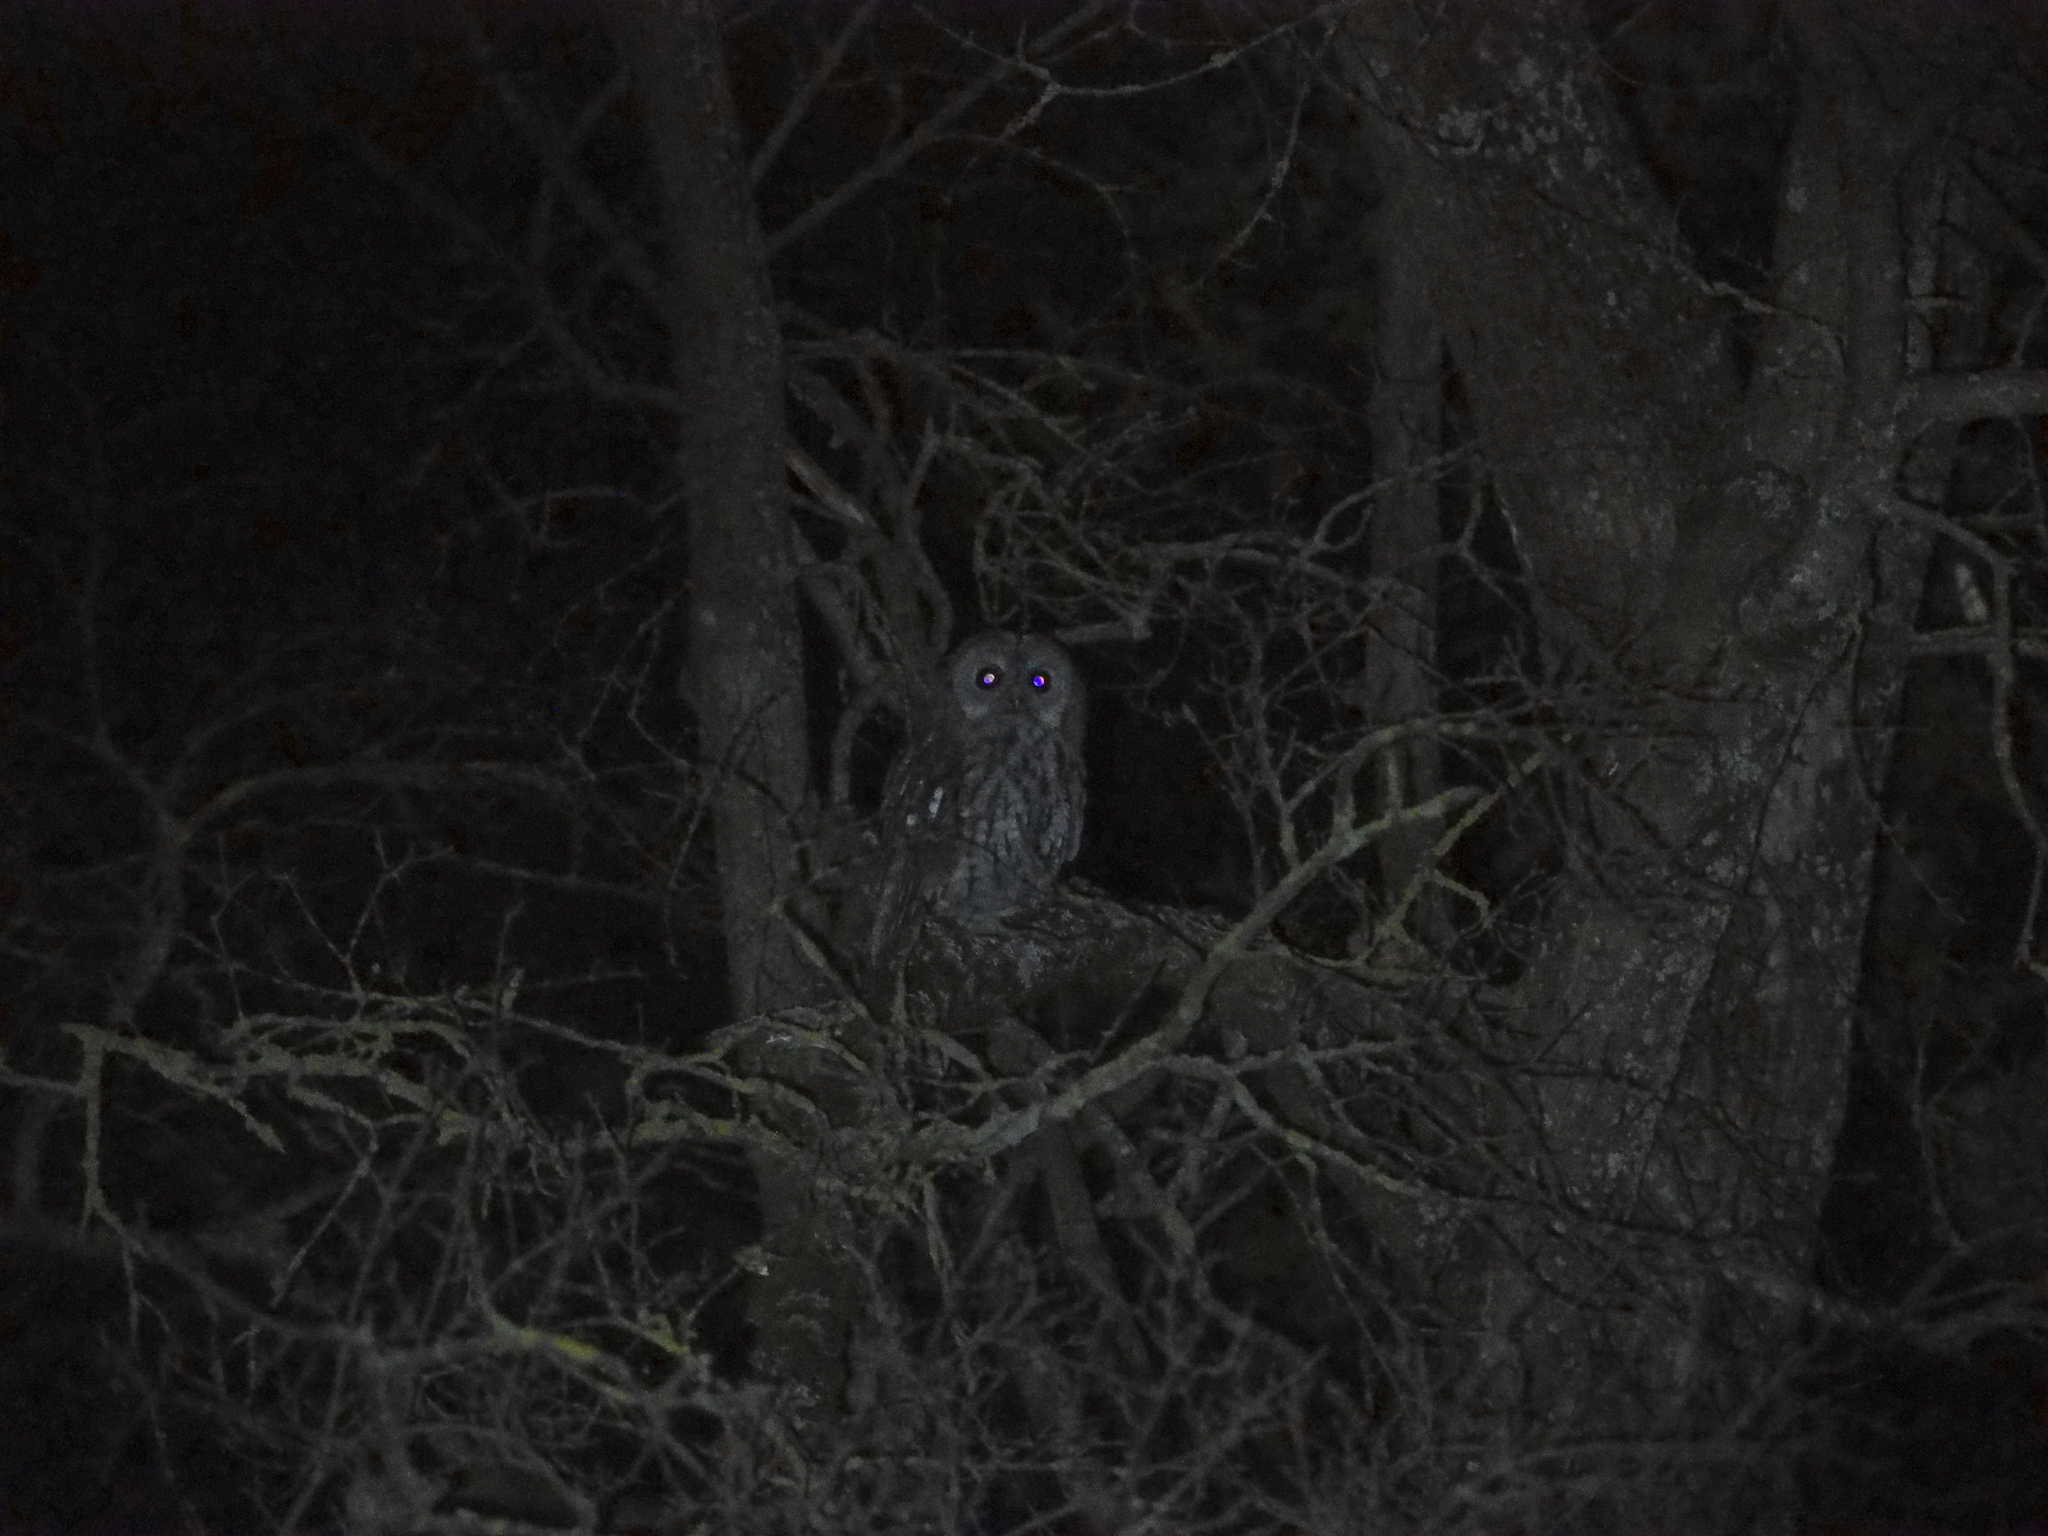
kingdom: Animalia
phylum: Chordata
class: Aves
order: Strigiformes
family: Strigidae
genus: Strix
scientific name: Strix aluco
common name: Tawny owl
